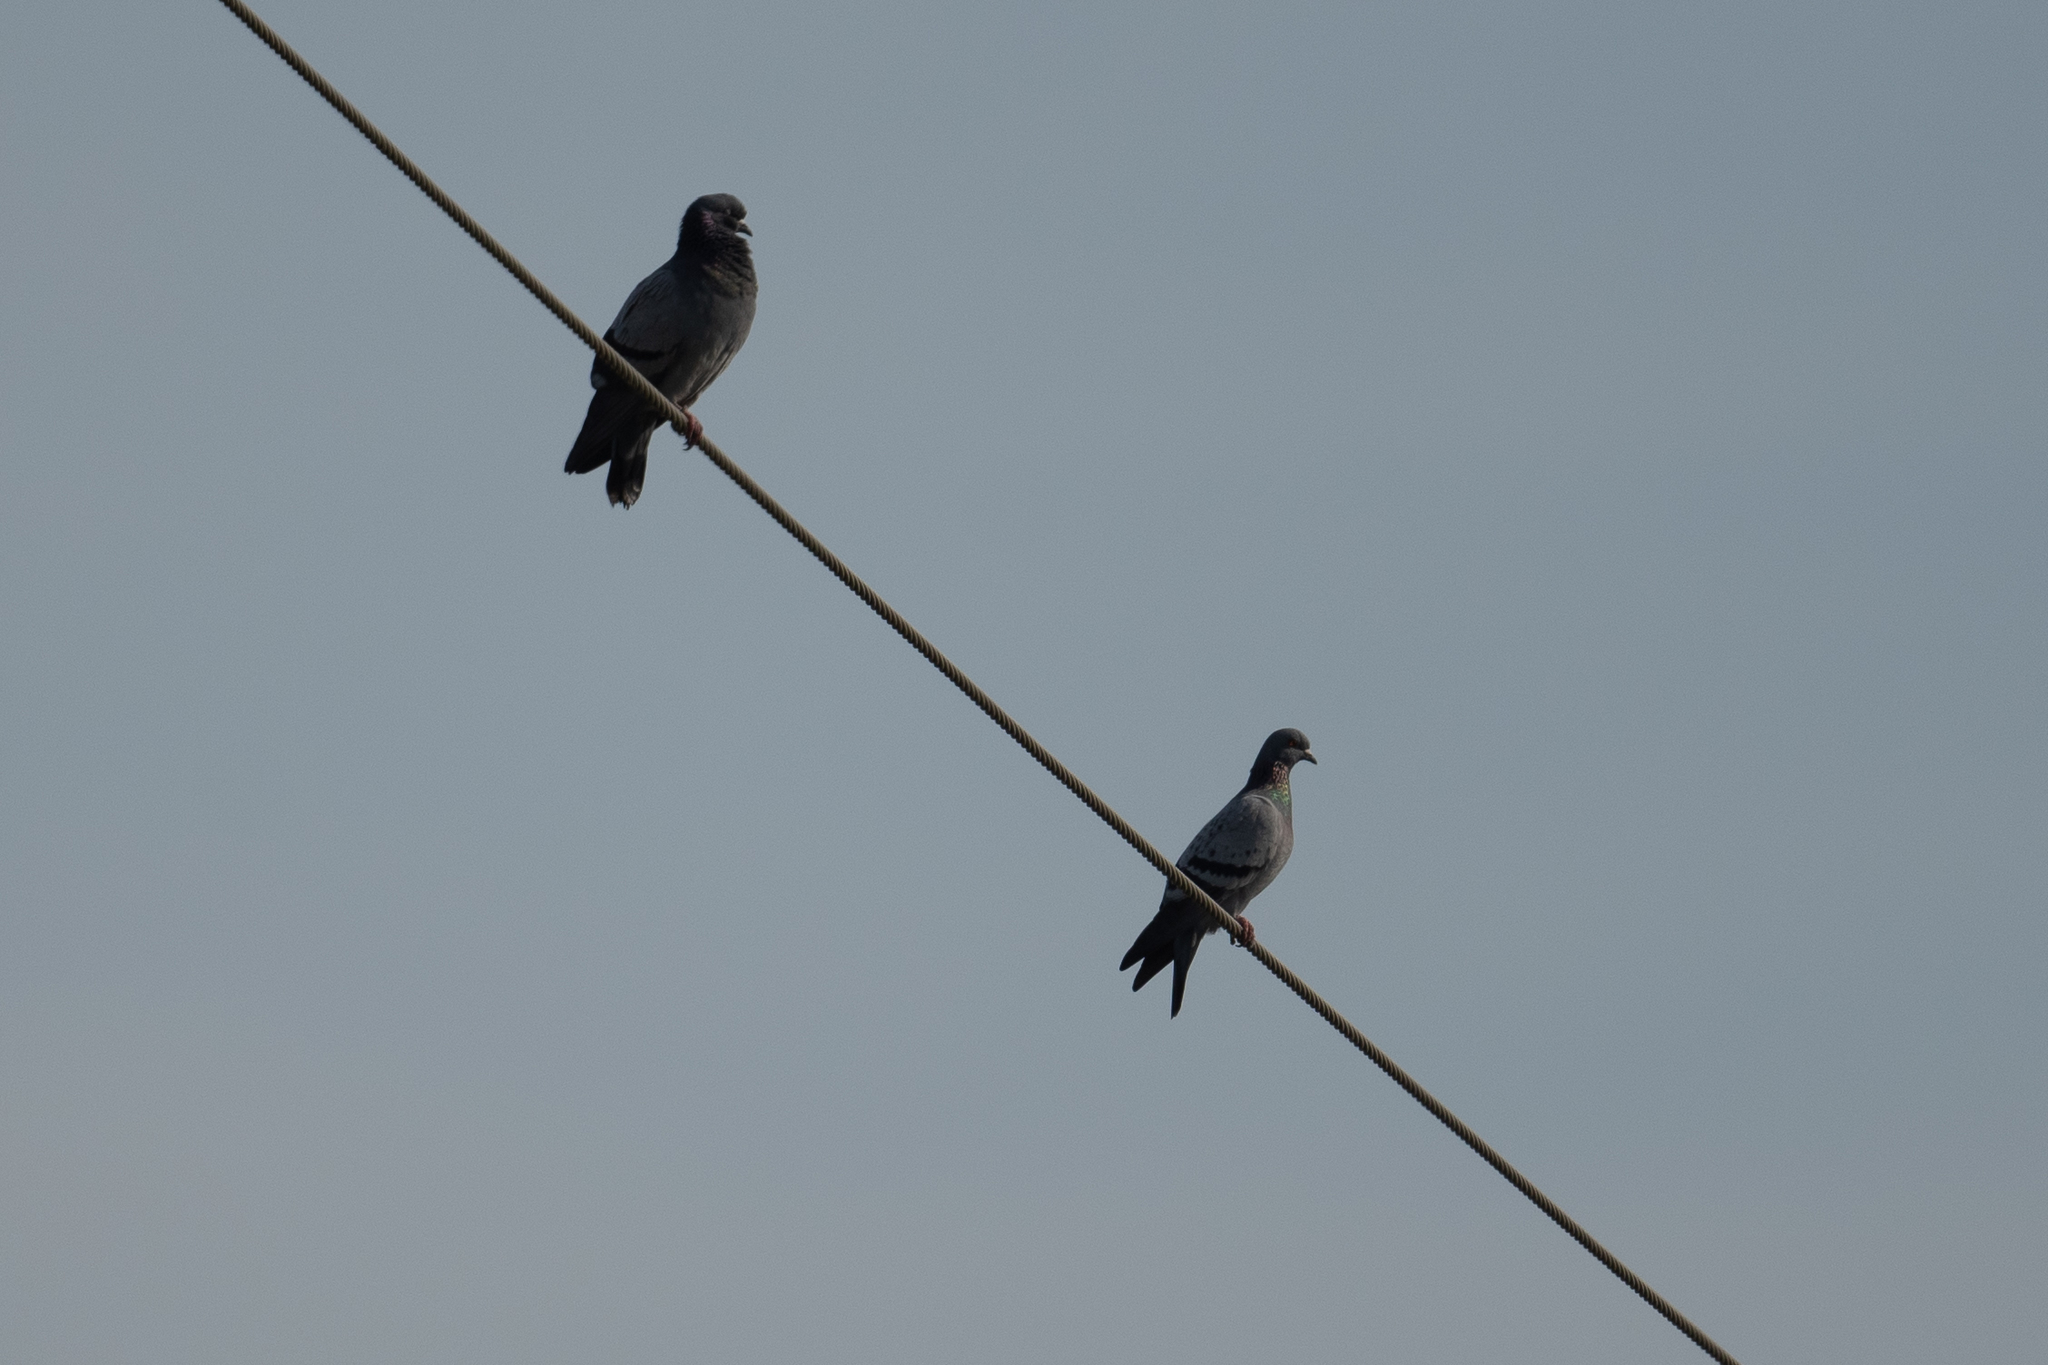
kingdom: Animalia
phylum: Chordata
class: Aves
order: Columbiformes
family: Columbidae
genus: Columba
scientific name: Columba livia
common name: Rock pigeon
